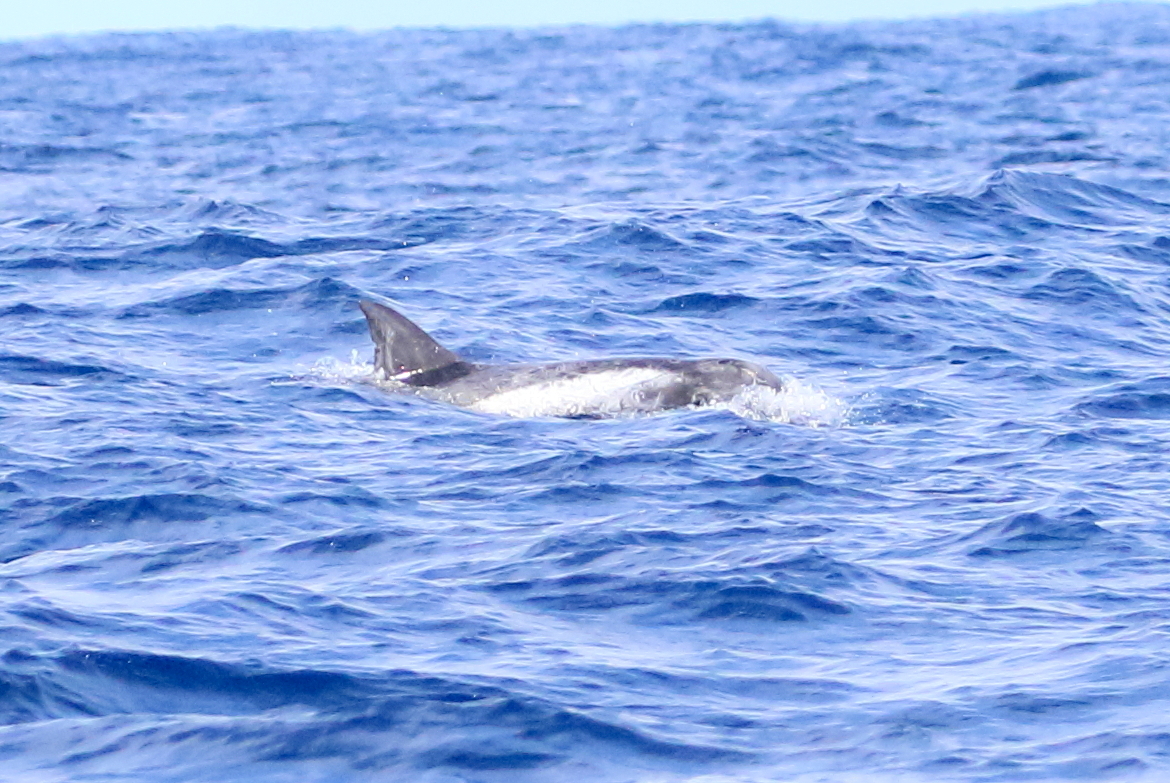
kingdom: Animalia
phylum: Chordata
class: Mammalia
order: Cetacea
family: Delphinidae
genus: Grampus
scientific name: Grampus griseus
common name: Risso's dolphin
